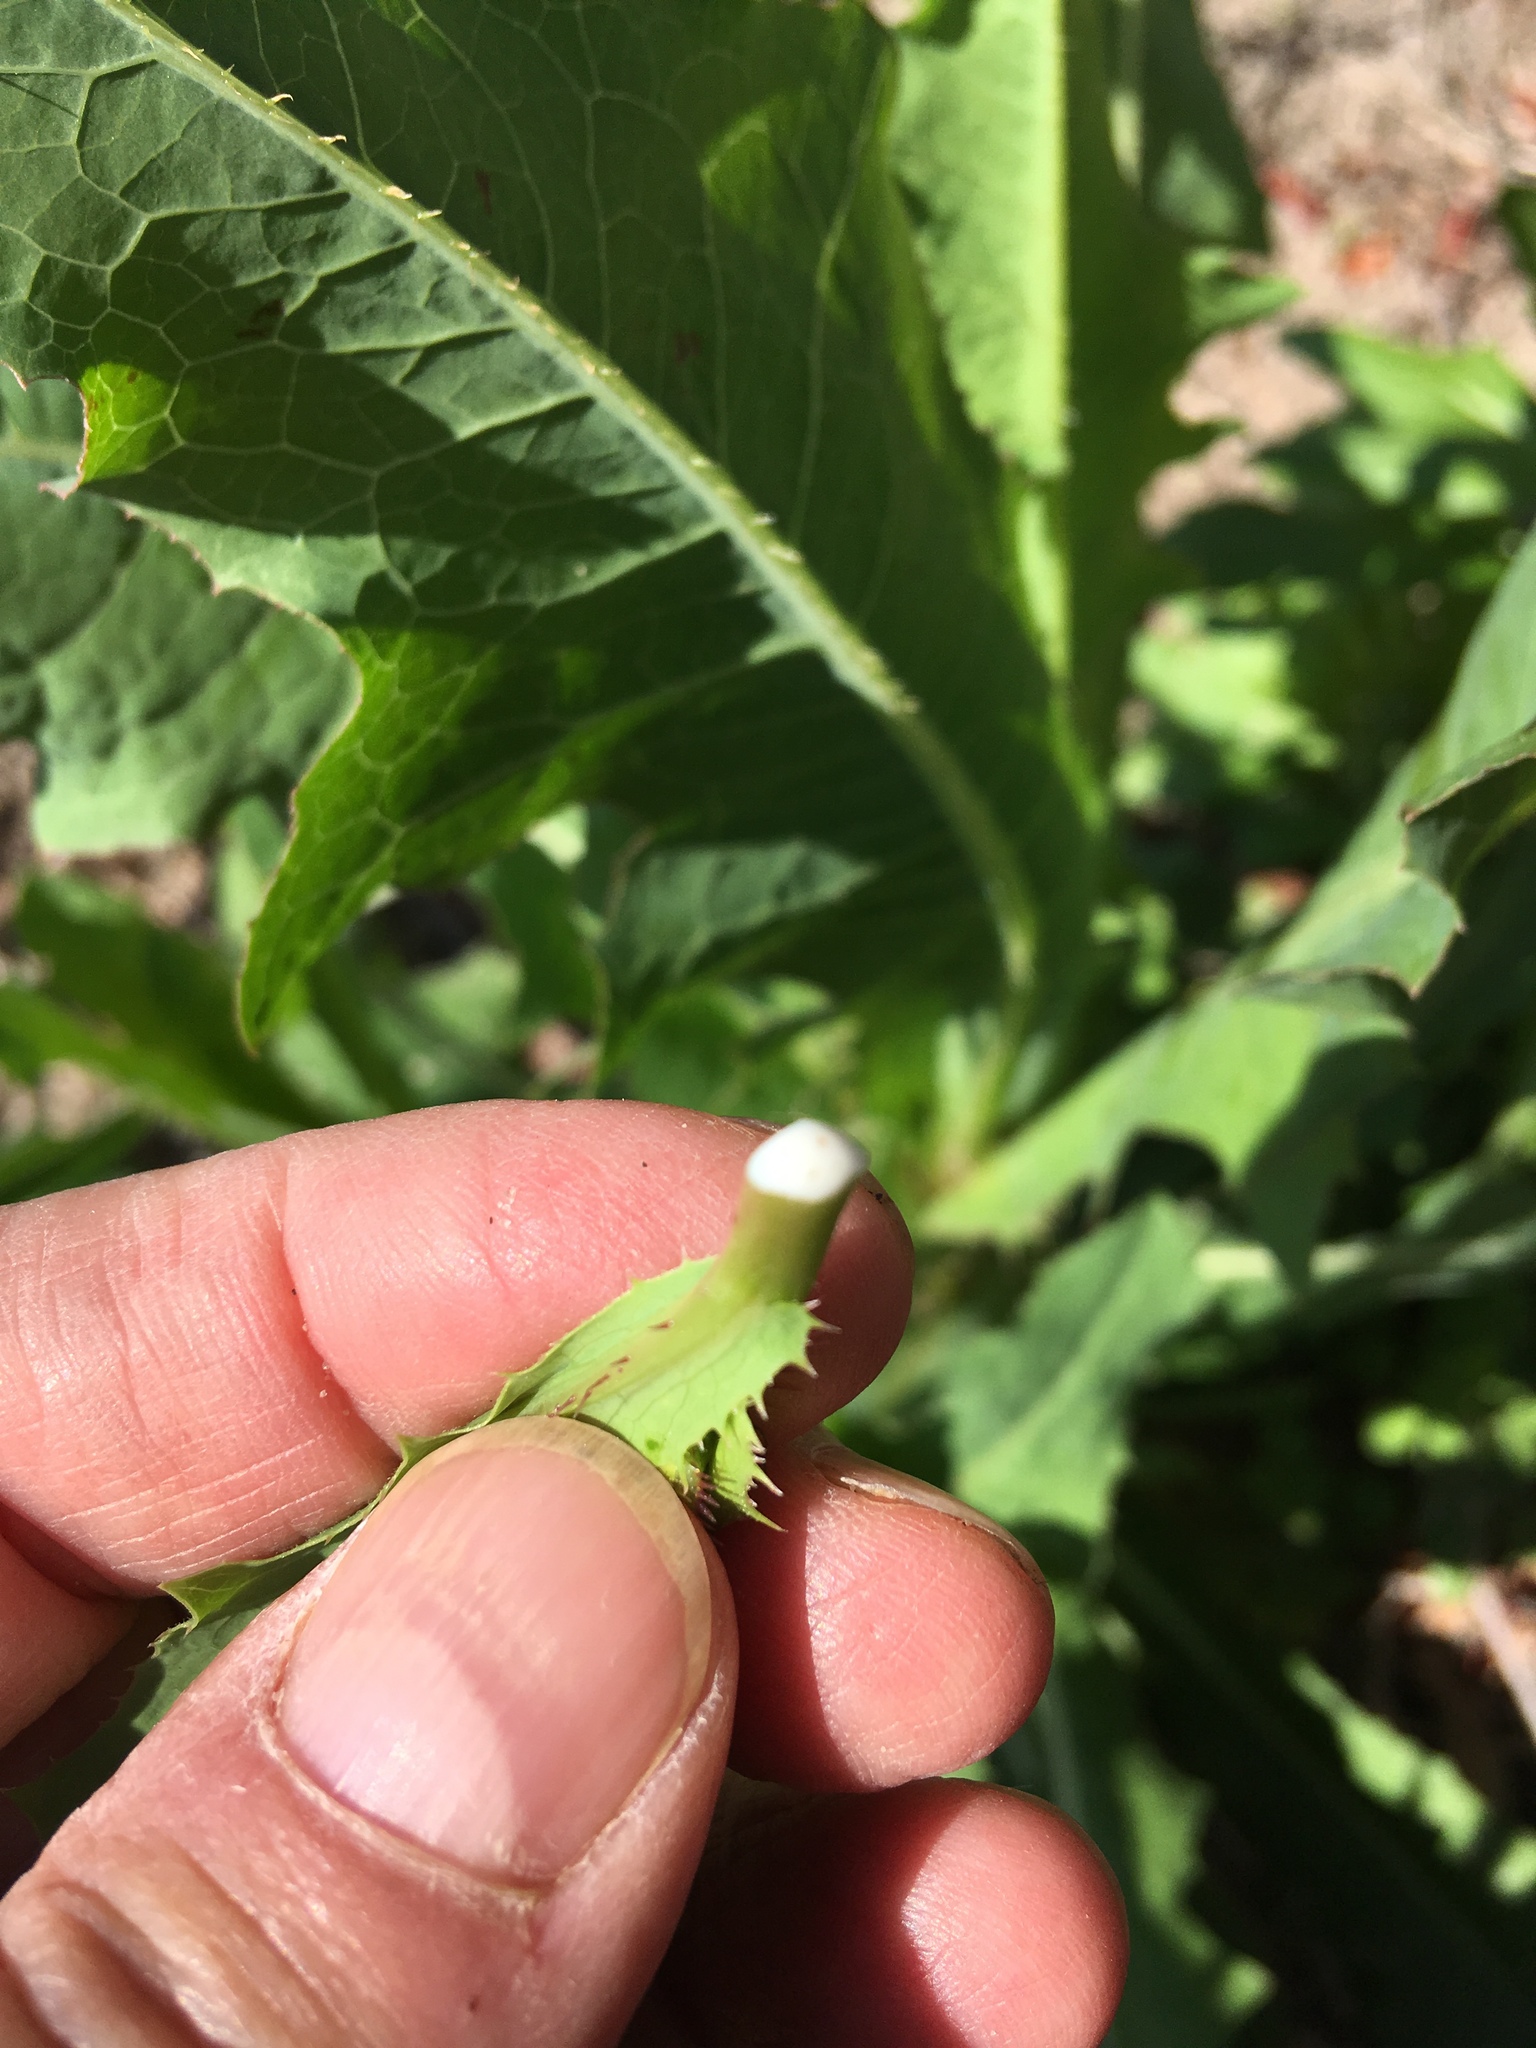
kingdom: Plantae
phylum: Tracheophyta
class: Magnoliopsida
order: Asterales
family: Asteraceae
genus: Lactuca
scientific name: Lactuca serriola
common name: Prickly lettuce
